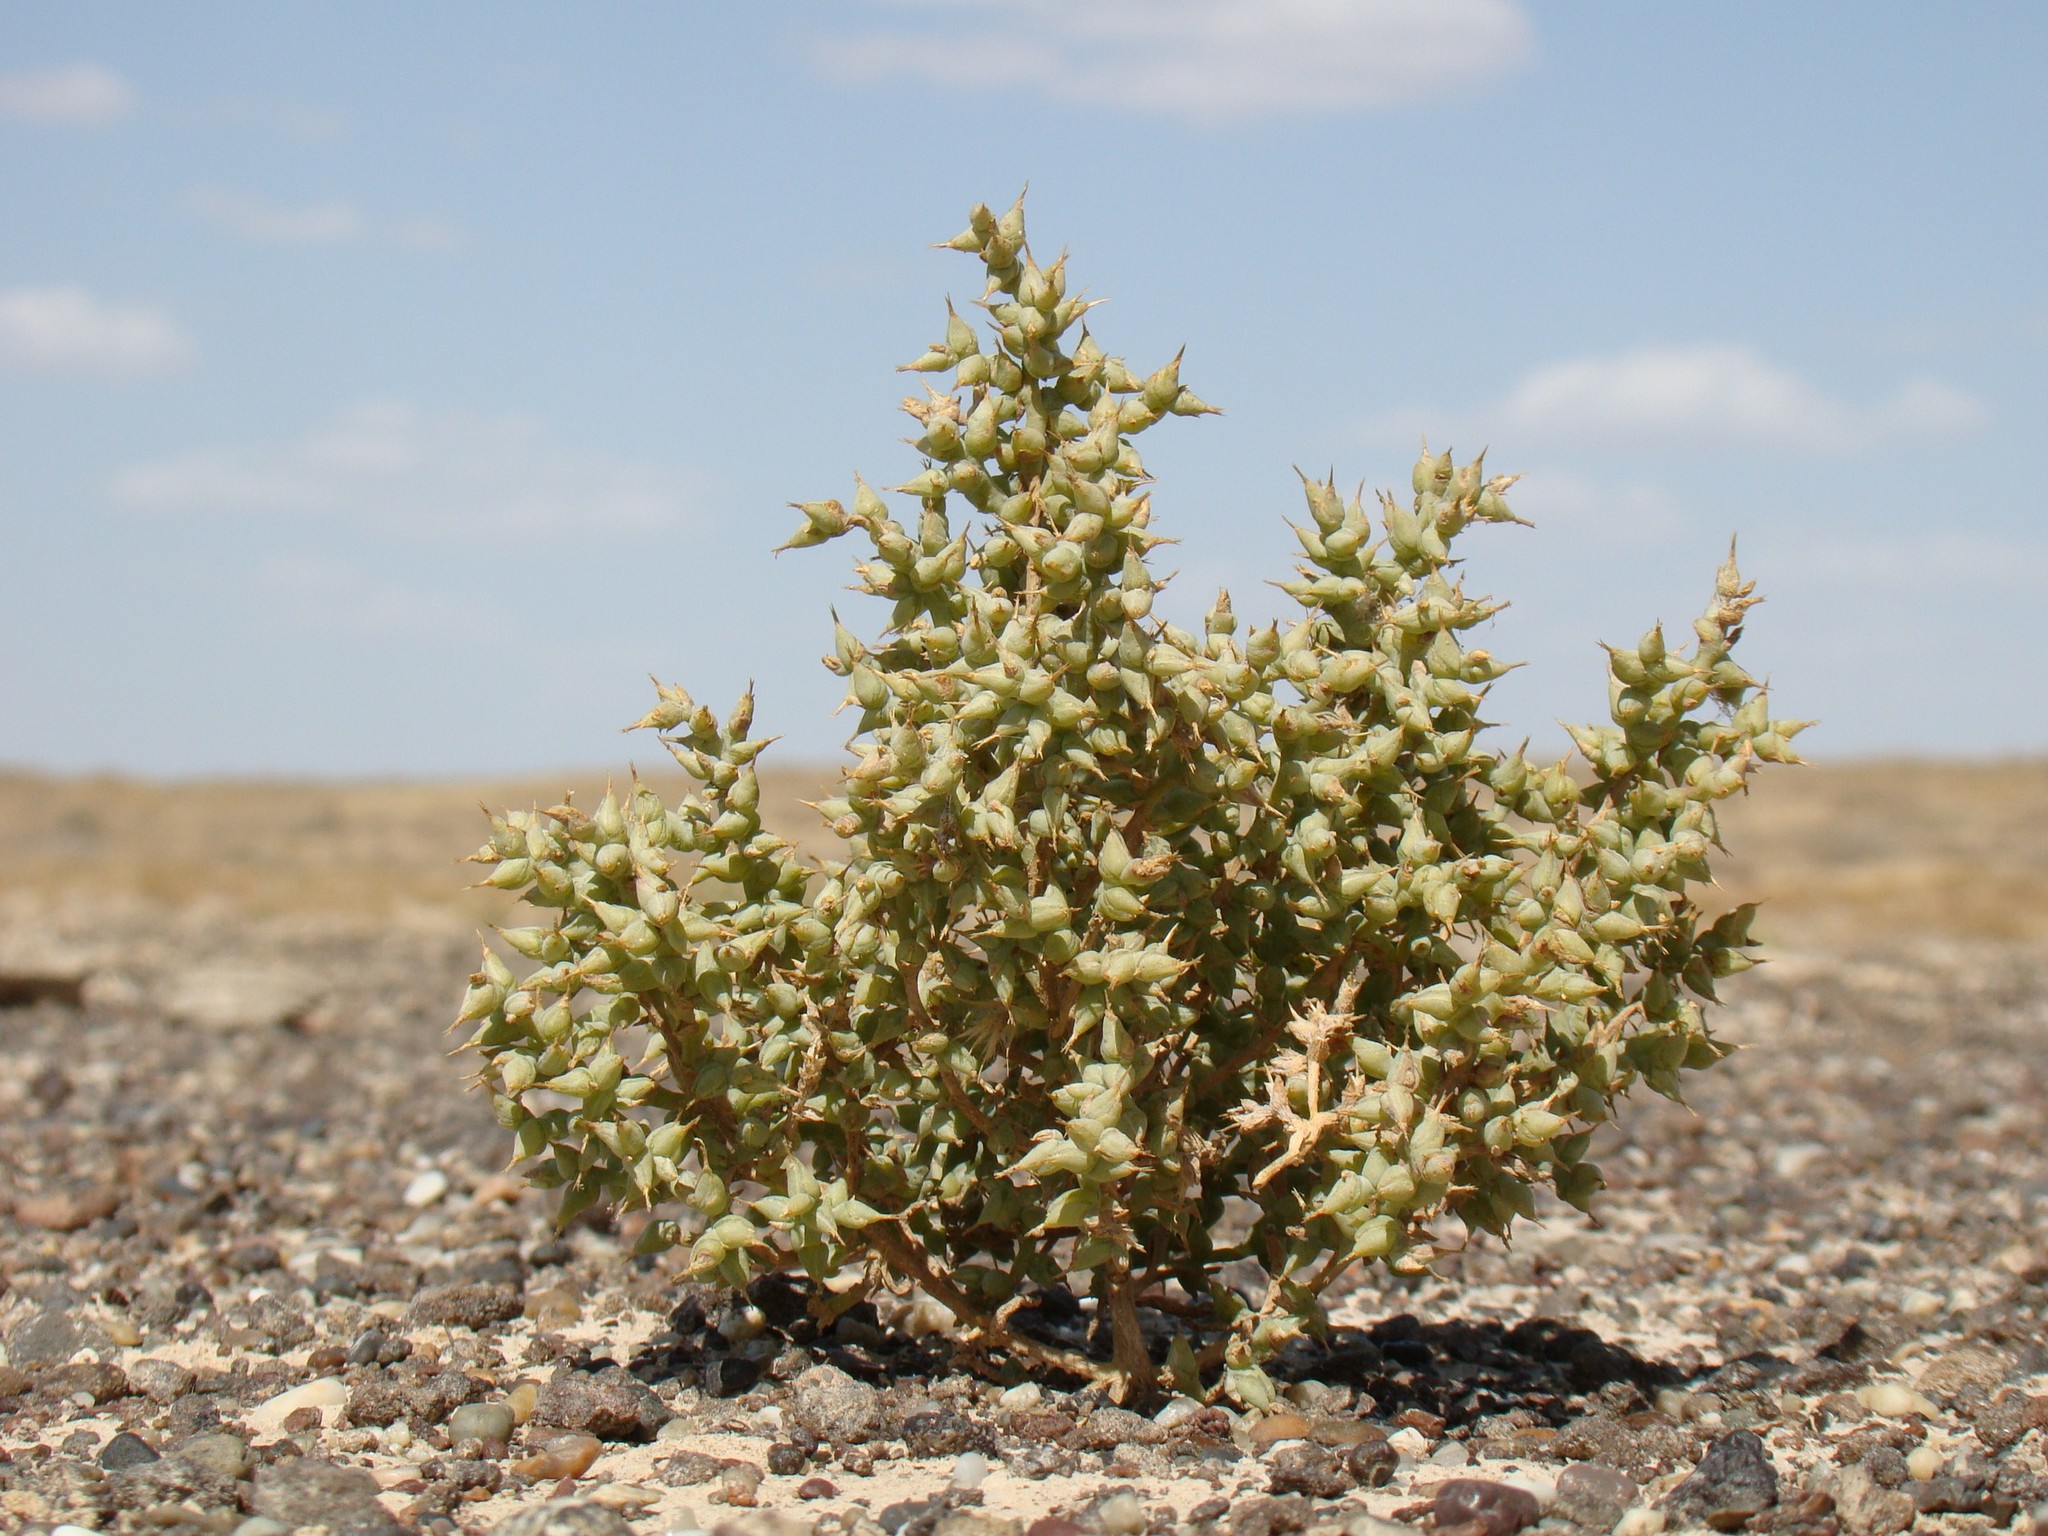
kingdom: Plantae
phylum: Tracheophyta
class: Magnoliopsida
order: Caryophyllales
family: Amaranthaceae
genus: Halimocnemis
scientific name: Halimocnemis karelinii
